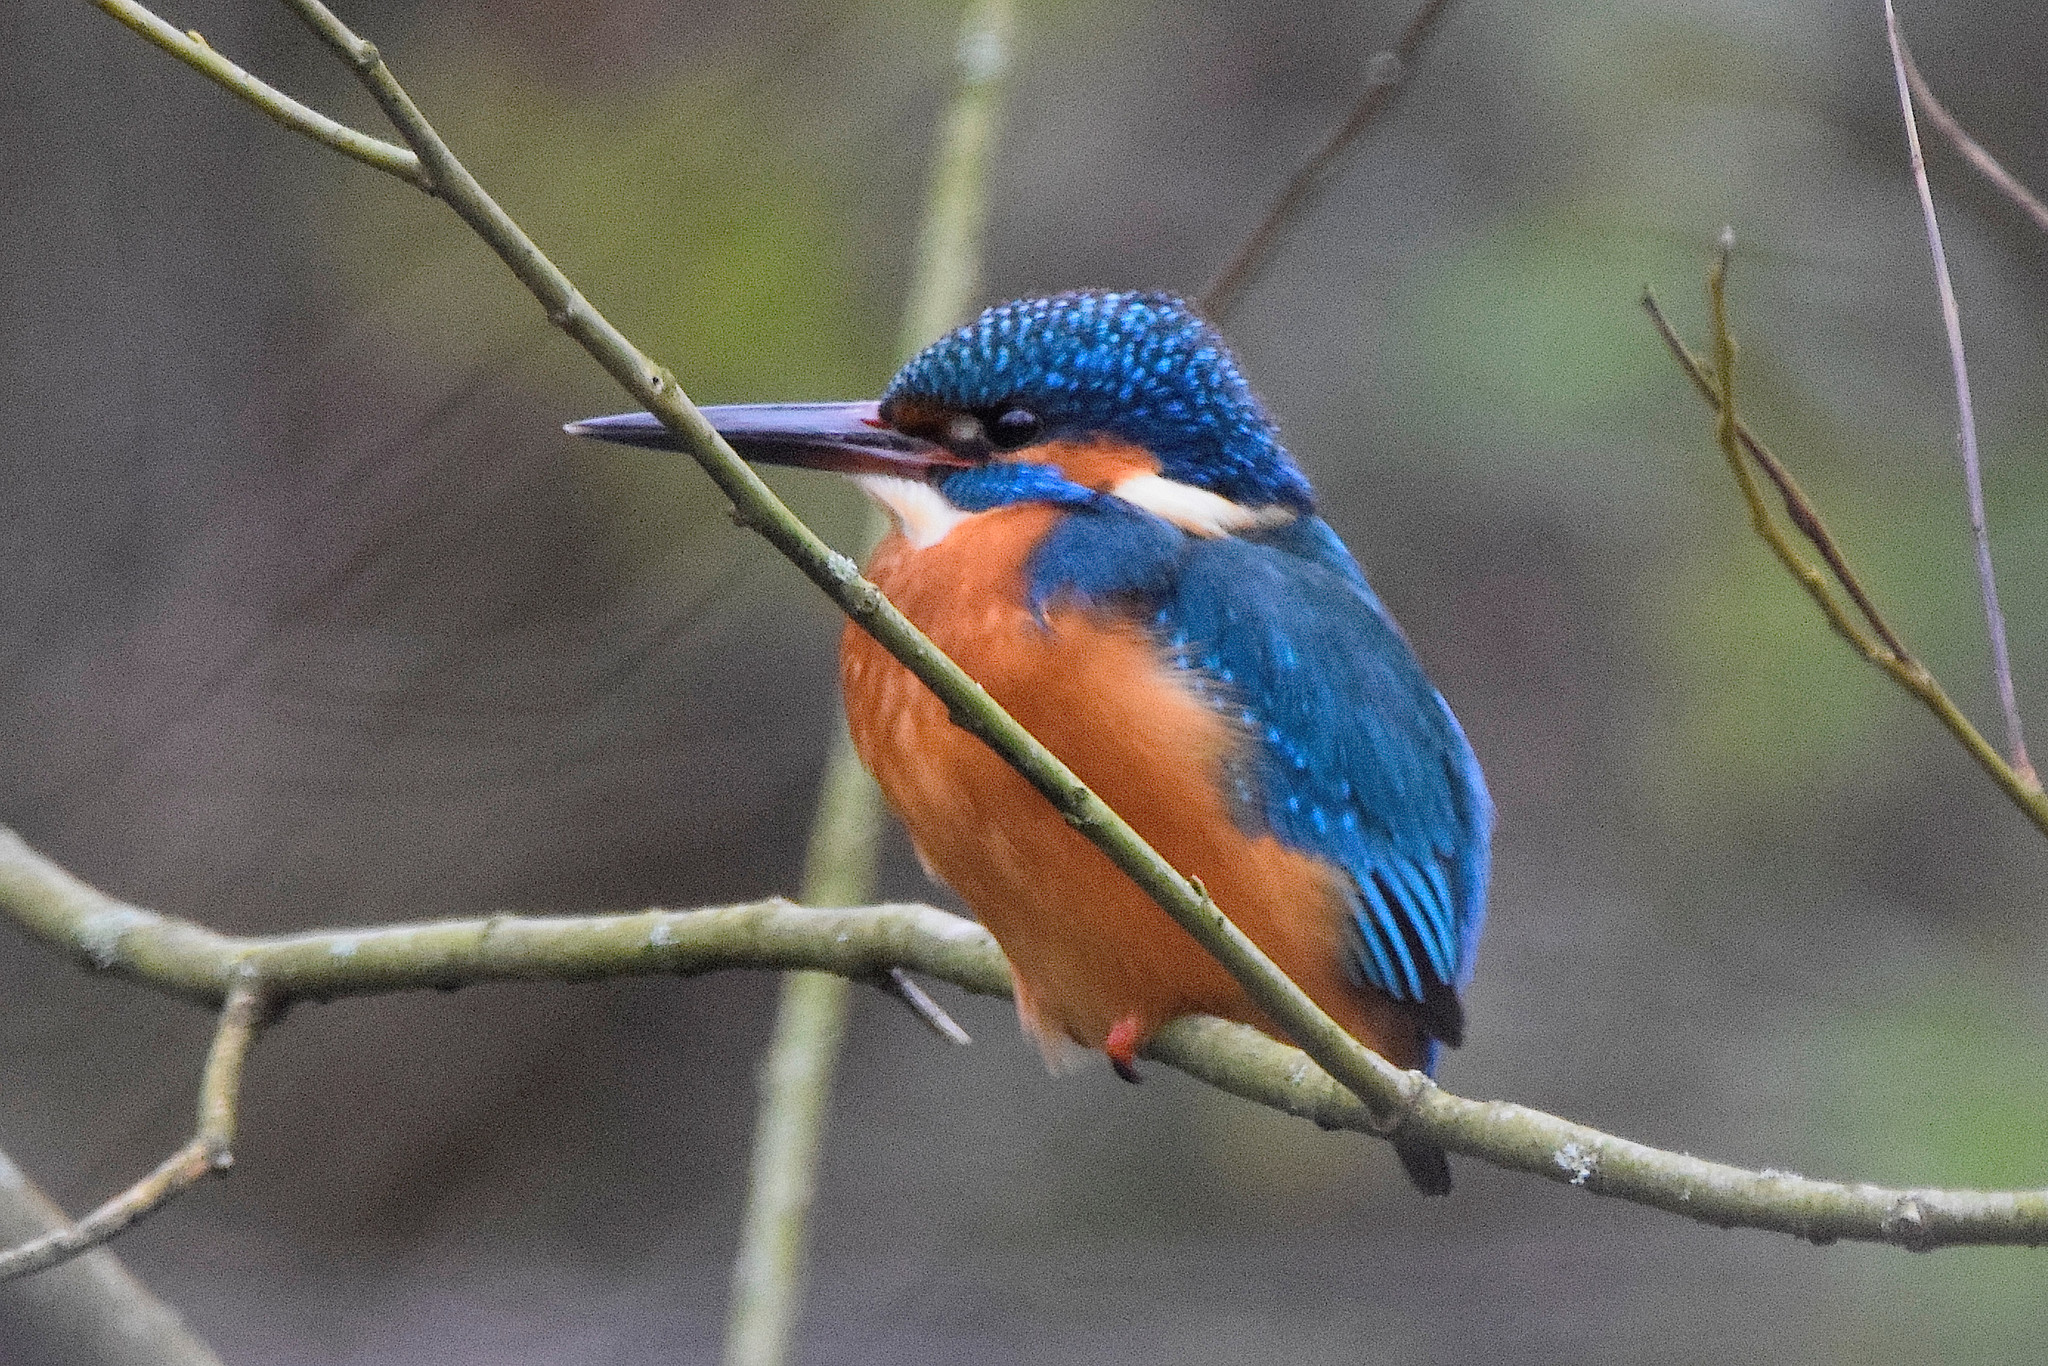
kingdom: Animalia
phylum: Chordata
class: Aves
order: Coraciiformes
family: Alcedinidae
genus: Alcedo
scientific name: Alcedo atthis
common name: Common kingfisher
